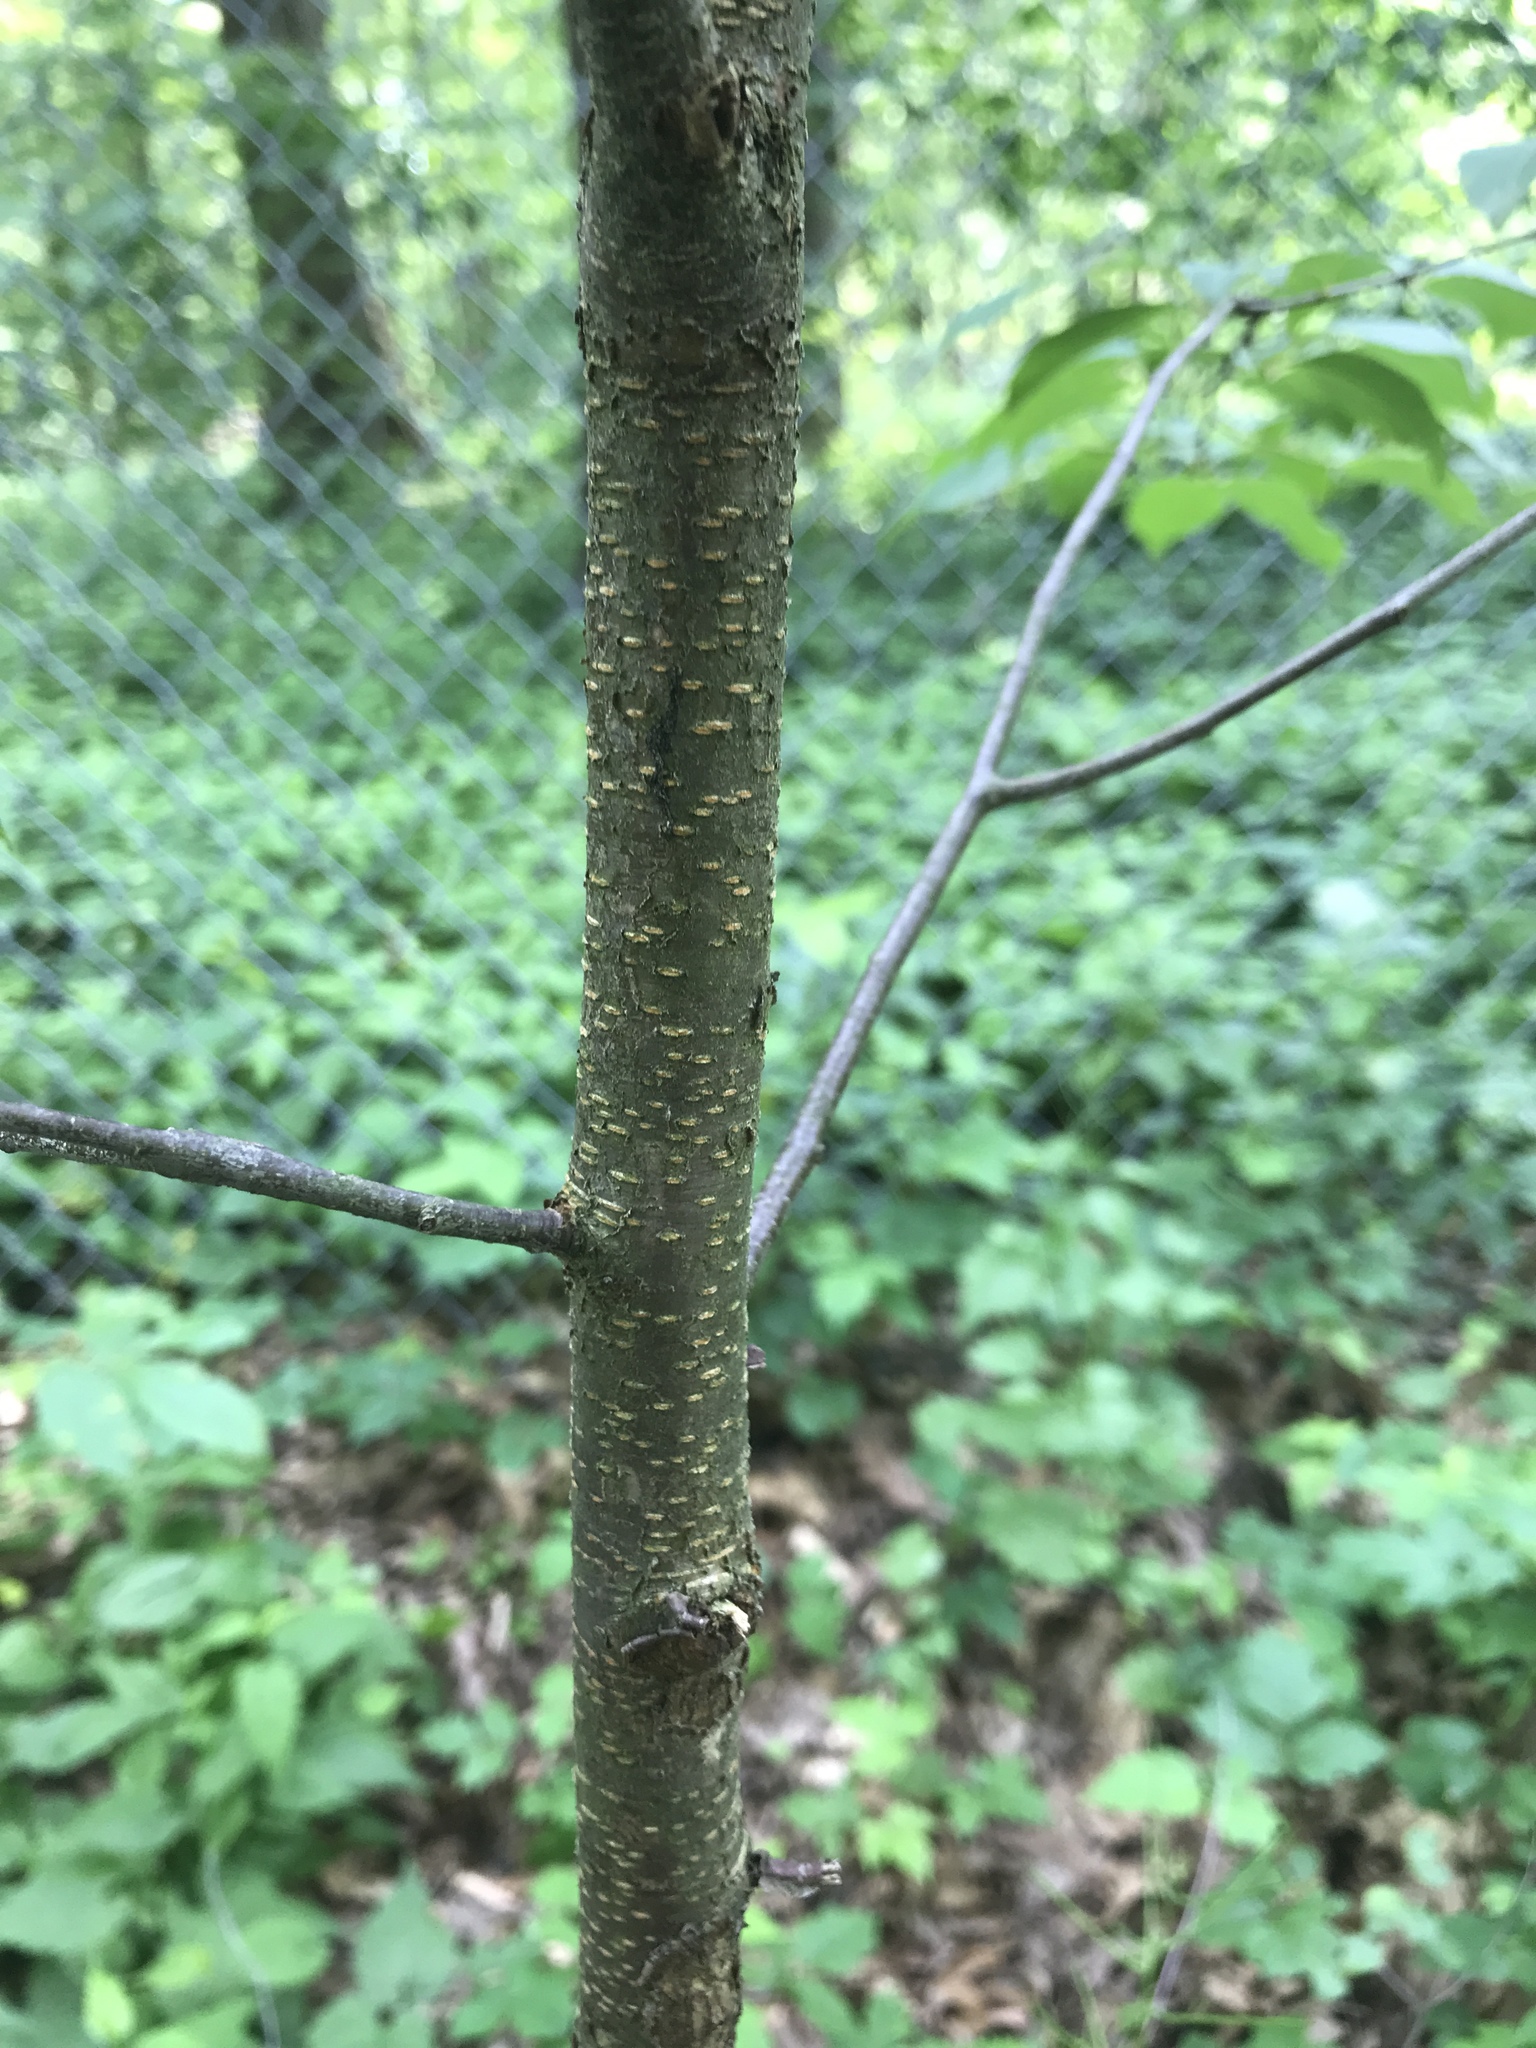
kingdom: Plantae
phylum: Tracheophyta
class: Magnoliopsida
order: Rosales
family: Rosaceae
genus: Prunus
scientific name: Prunus serotina
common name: Black cherry
